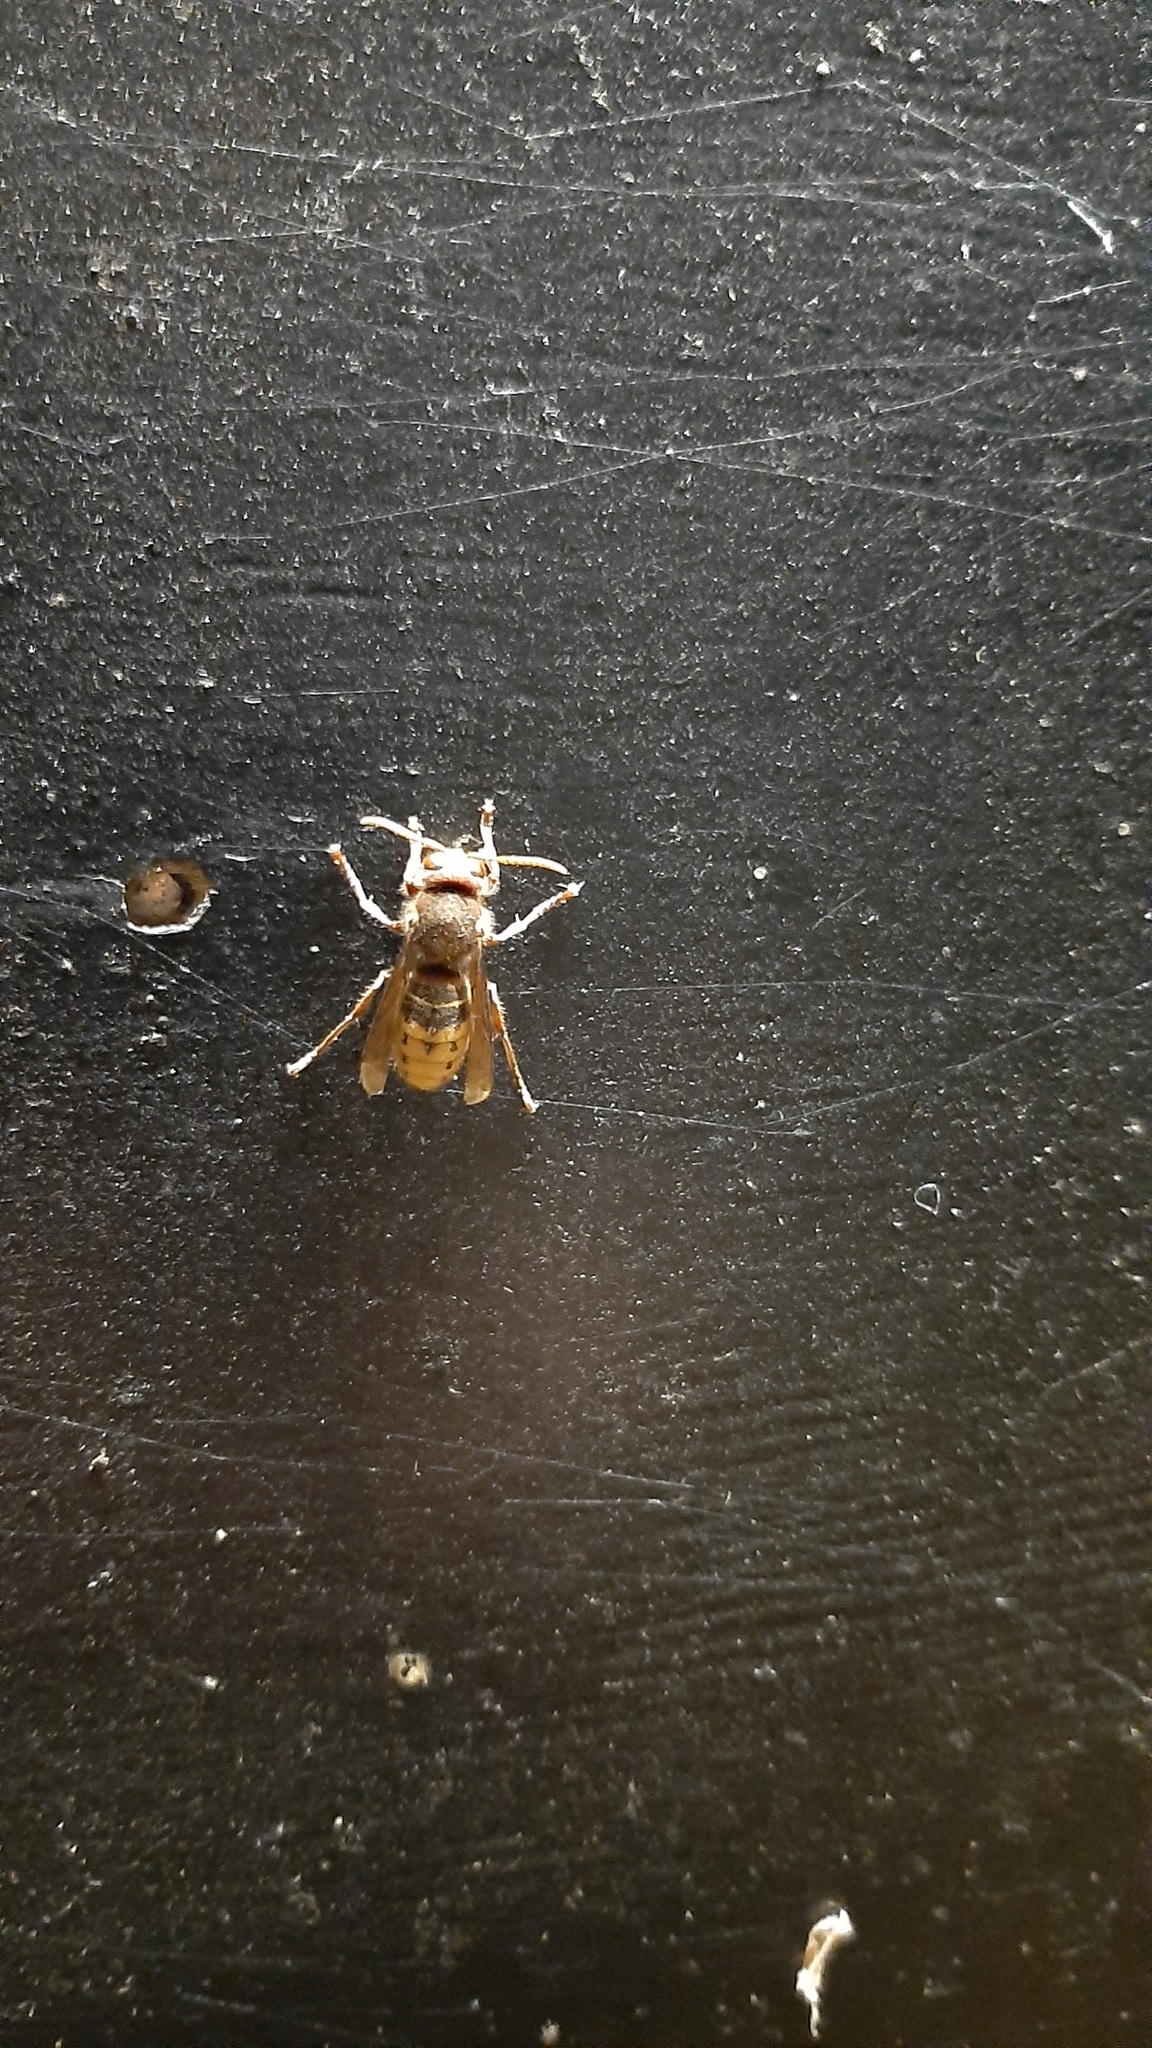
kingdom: Animalia
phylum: Arthropoda
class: Insecta
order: Hymenoptera
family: Vespidae
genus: Vespa
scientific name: Vespa crabro
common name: Hornet
